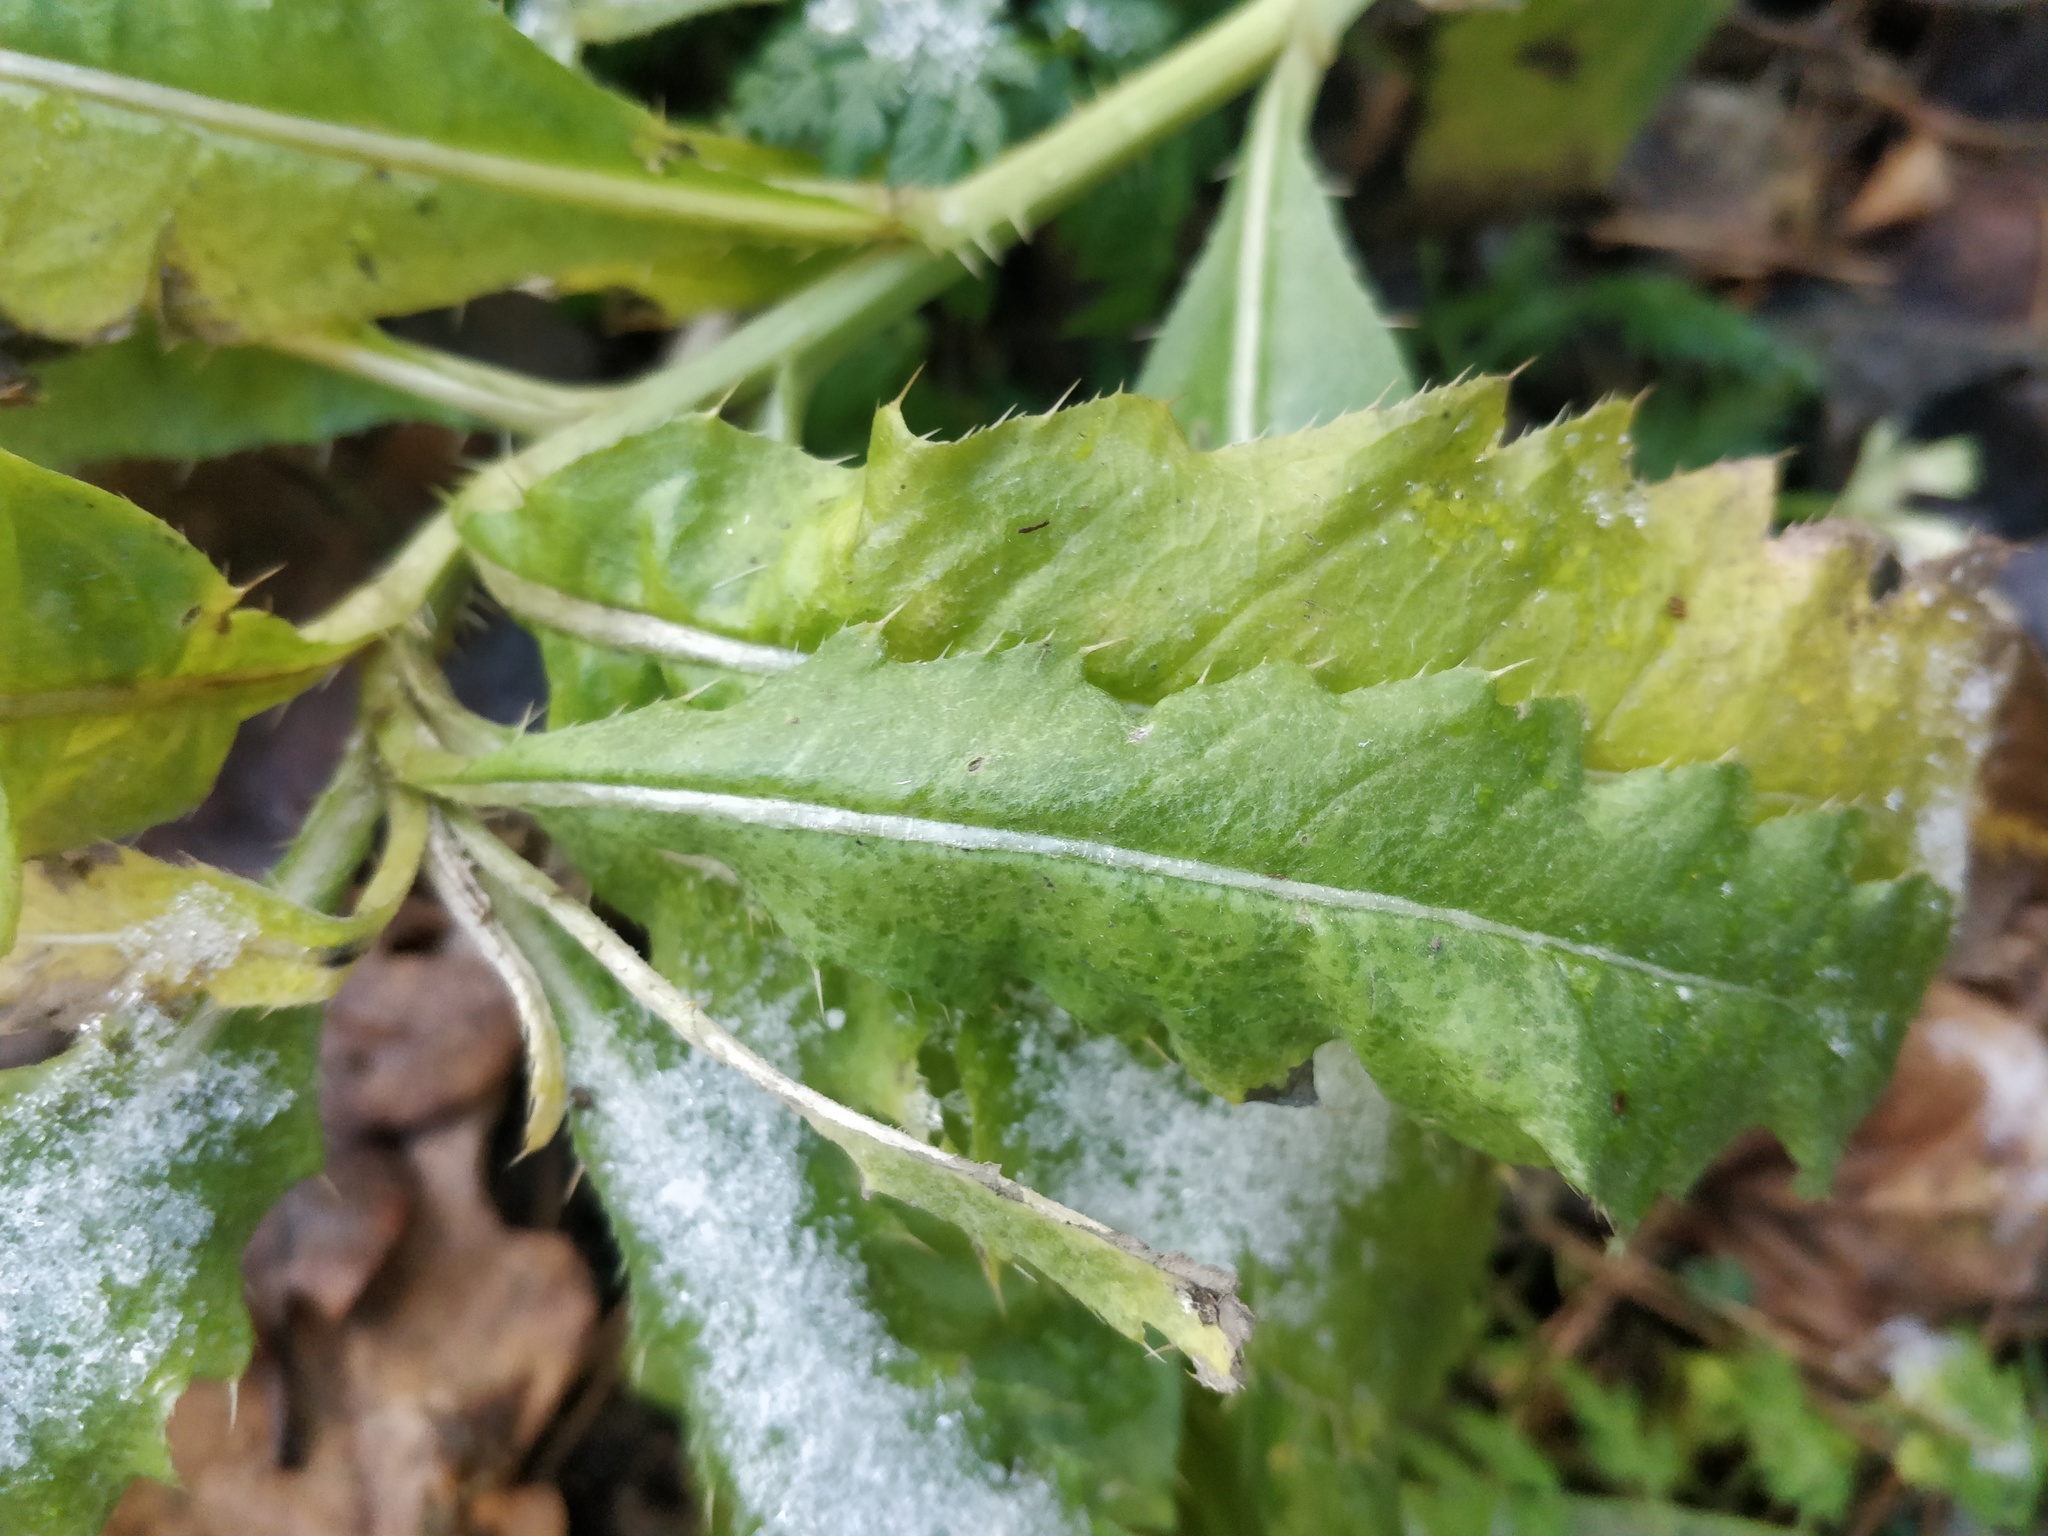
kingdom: Plantae
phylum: Tracheophyta
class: Magnoliopsida
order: Asterales
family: Asteraceae
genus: Cirsium
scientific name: Cirsium arvense
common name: Creeping thistle
